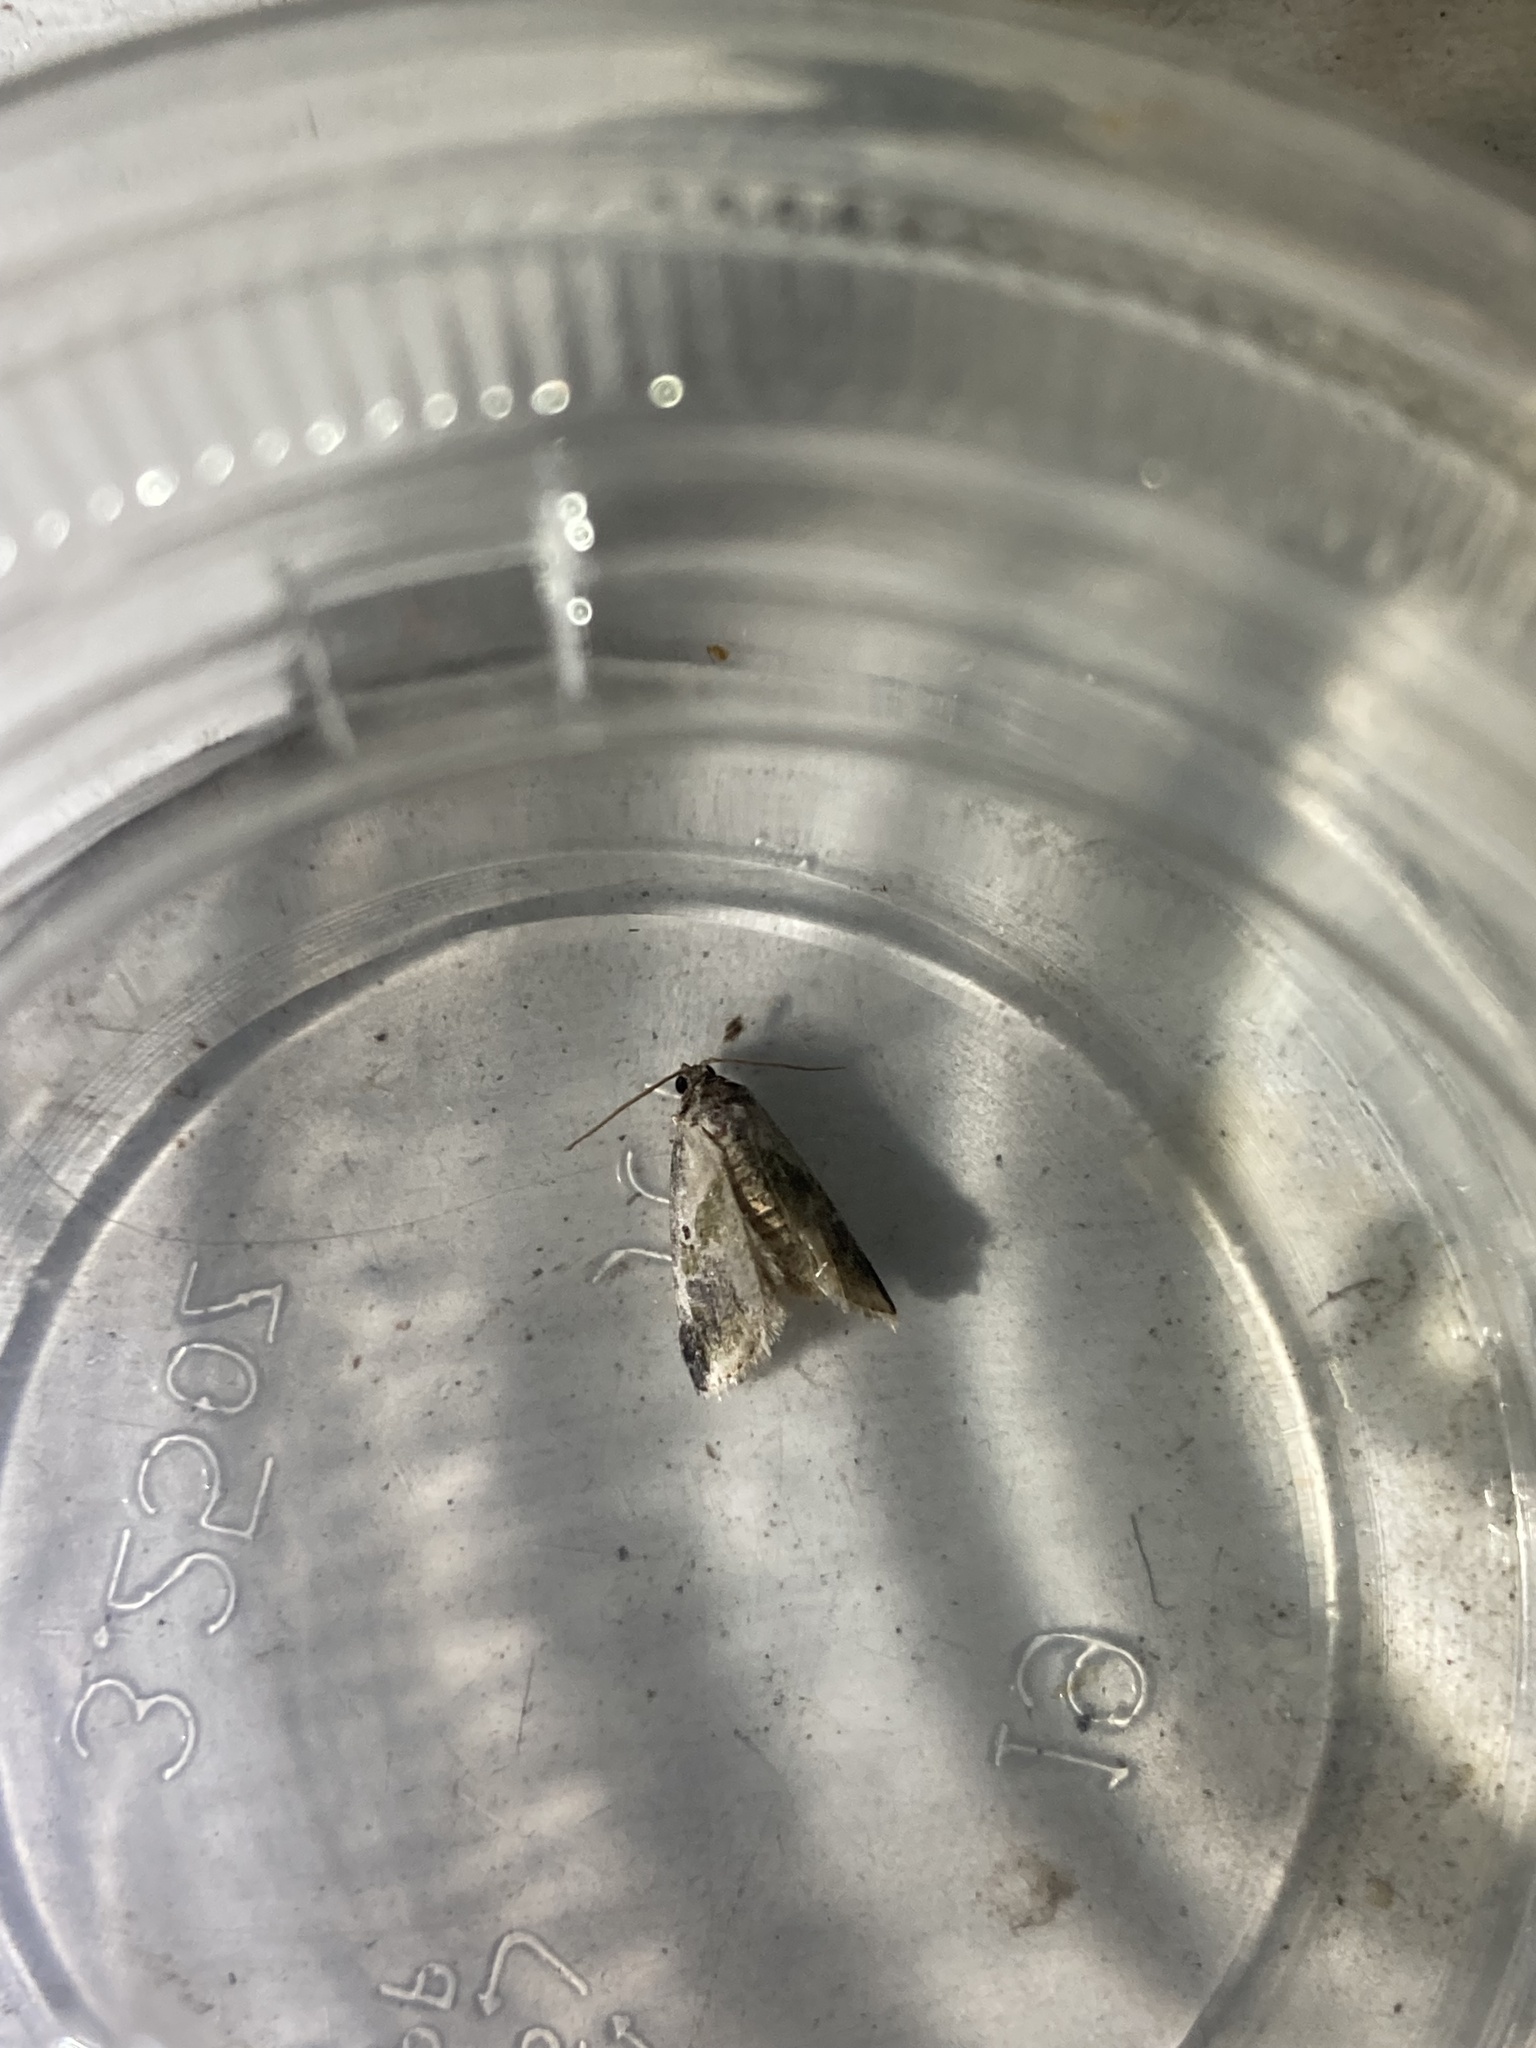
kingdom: Animalia
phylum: Arthropoda
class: Insecta
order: Lepidoptera
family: Noctuidae
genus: Maliattha
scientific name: Maliattha synochitis
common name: Black-dotted glyph
